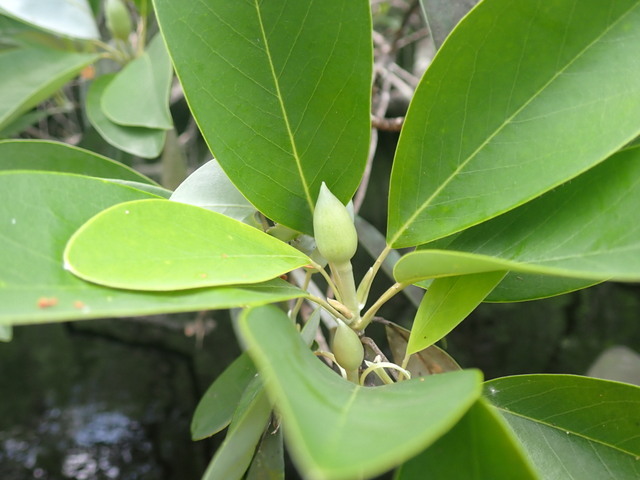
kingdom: Plantae
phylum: Tracheophyta
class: Magnoliopsida
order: Magnoliales
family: Magnoliaceae
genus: Magnolia
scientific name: Magnolia virginiana
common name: Swamp bay
